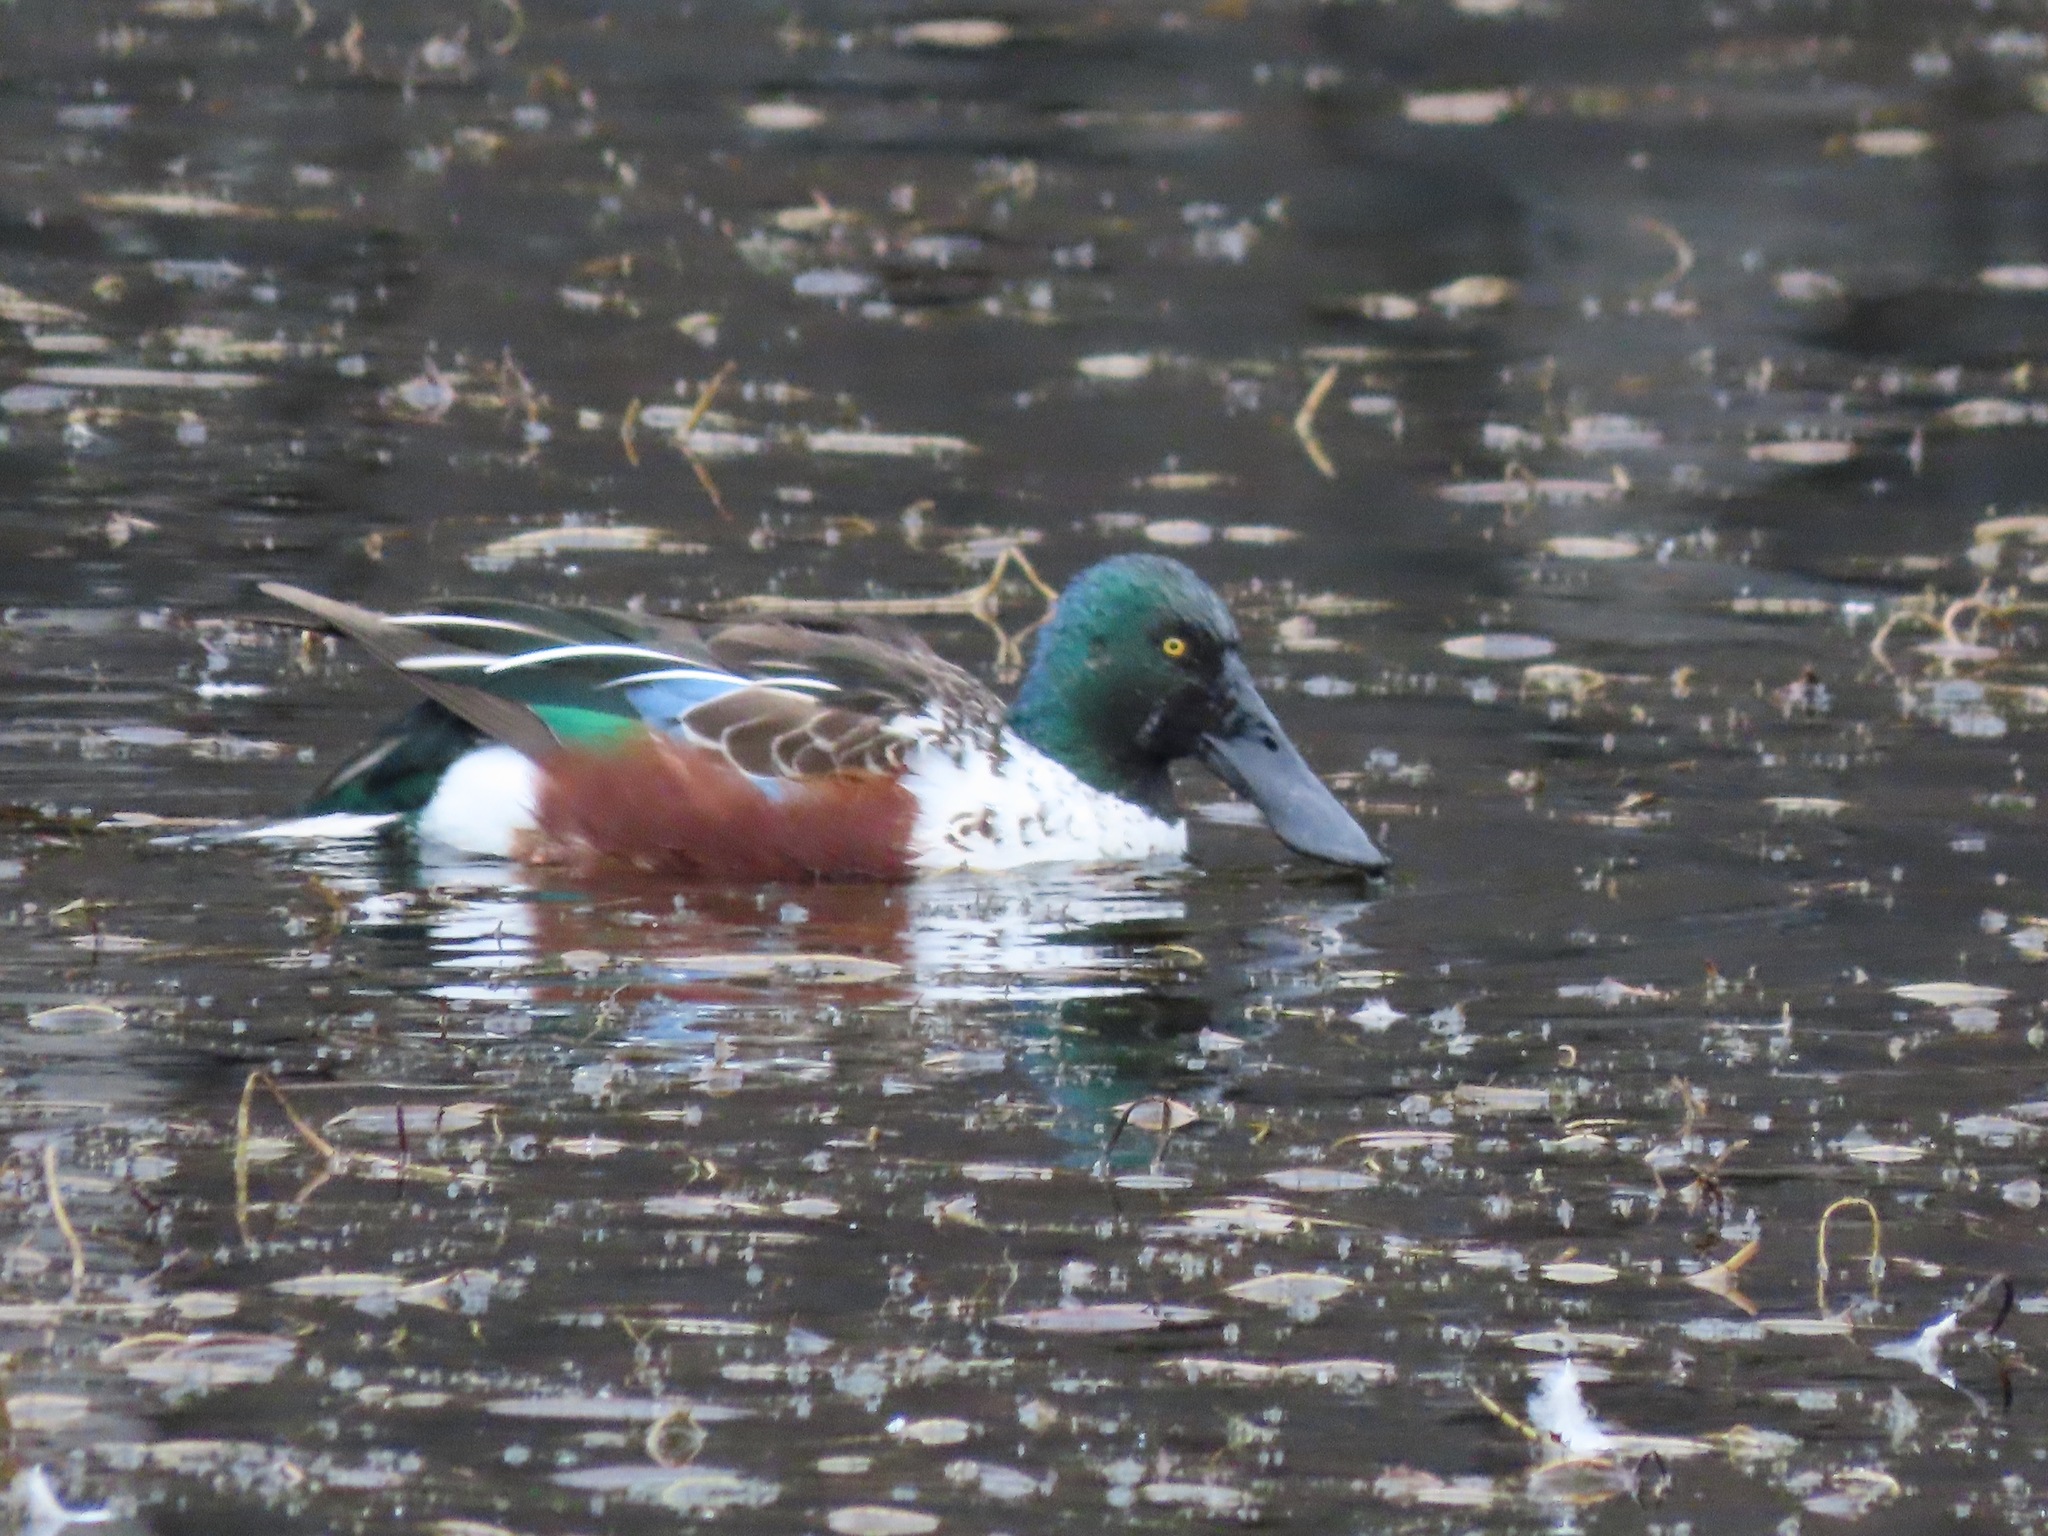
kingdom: Animalia
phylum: Chordata
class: Aves
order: Anseriformes
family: Anatidae
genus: Spatula
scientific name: Spatula clypeata
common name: Northern shoveler
